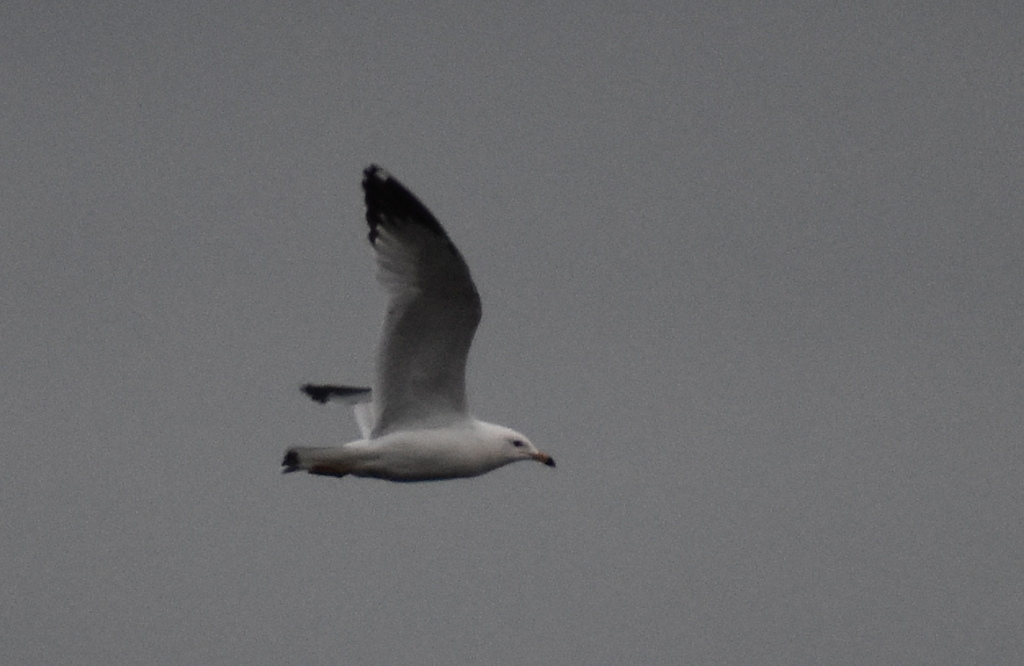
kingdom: Animalia
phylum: Chordata
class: Aves
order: Charadriiformes
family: Laridae
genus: Larus
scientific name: Larus delawarensis
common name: Ring-billed gull
